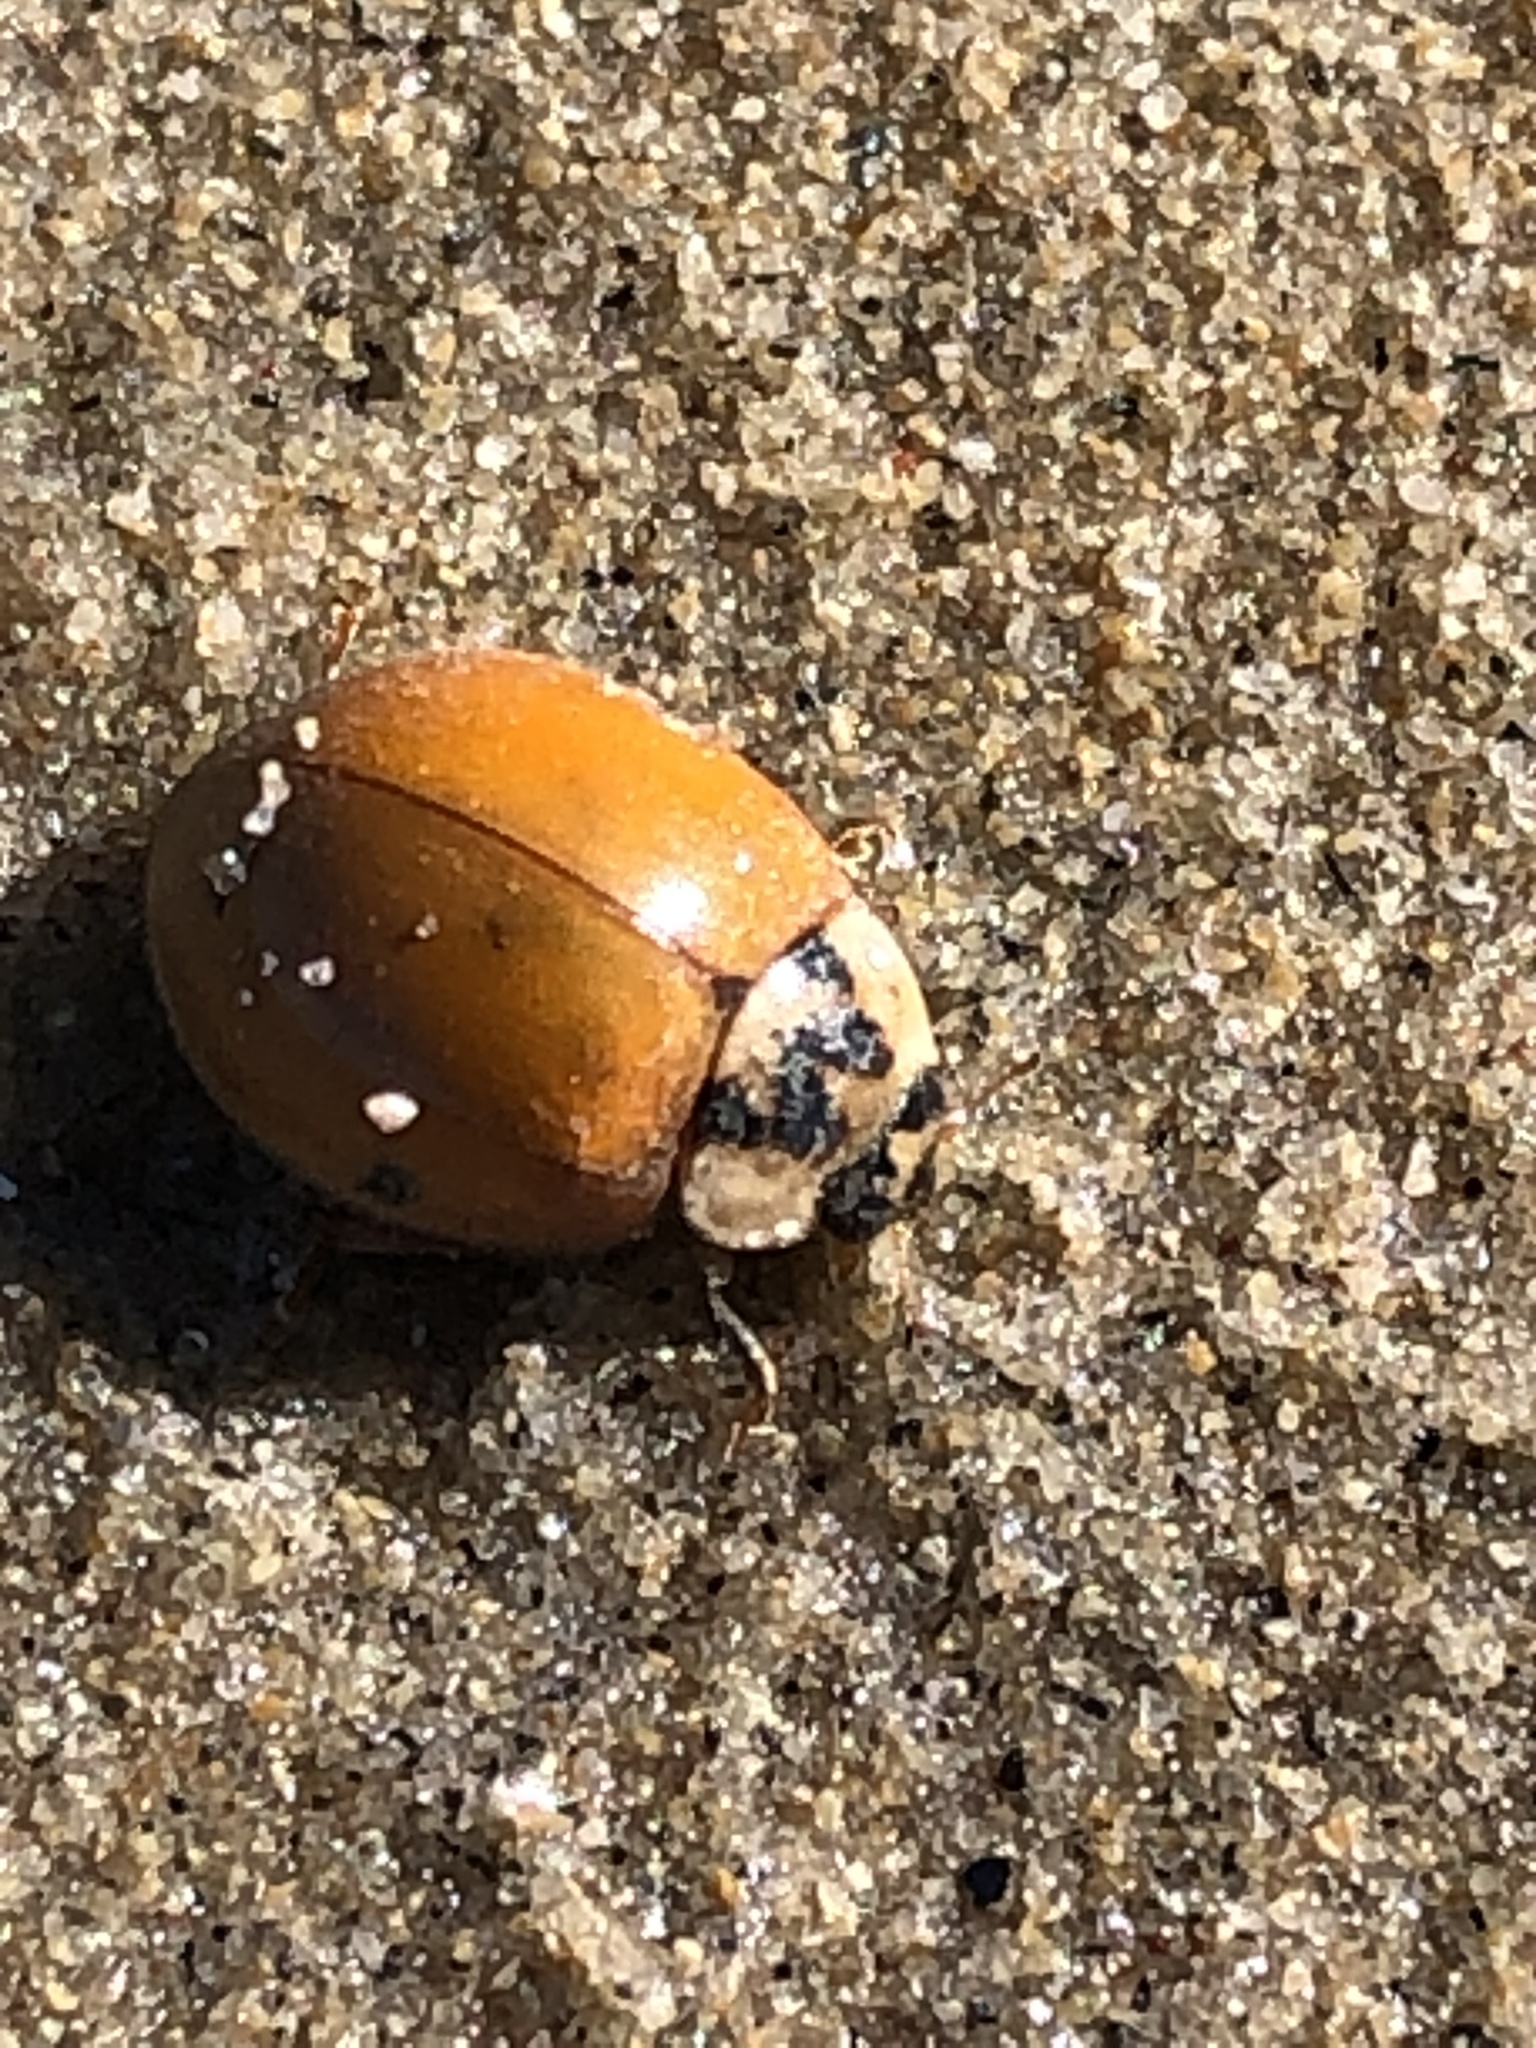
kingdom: Animalia
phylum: Arthropoda
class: Insecta
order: Coleoptera
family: Coccinellidae
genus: Harmonia
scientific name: Harmonia axyridis
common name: Harlequin ladybird
